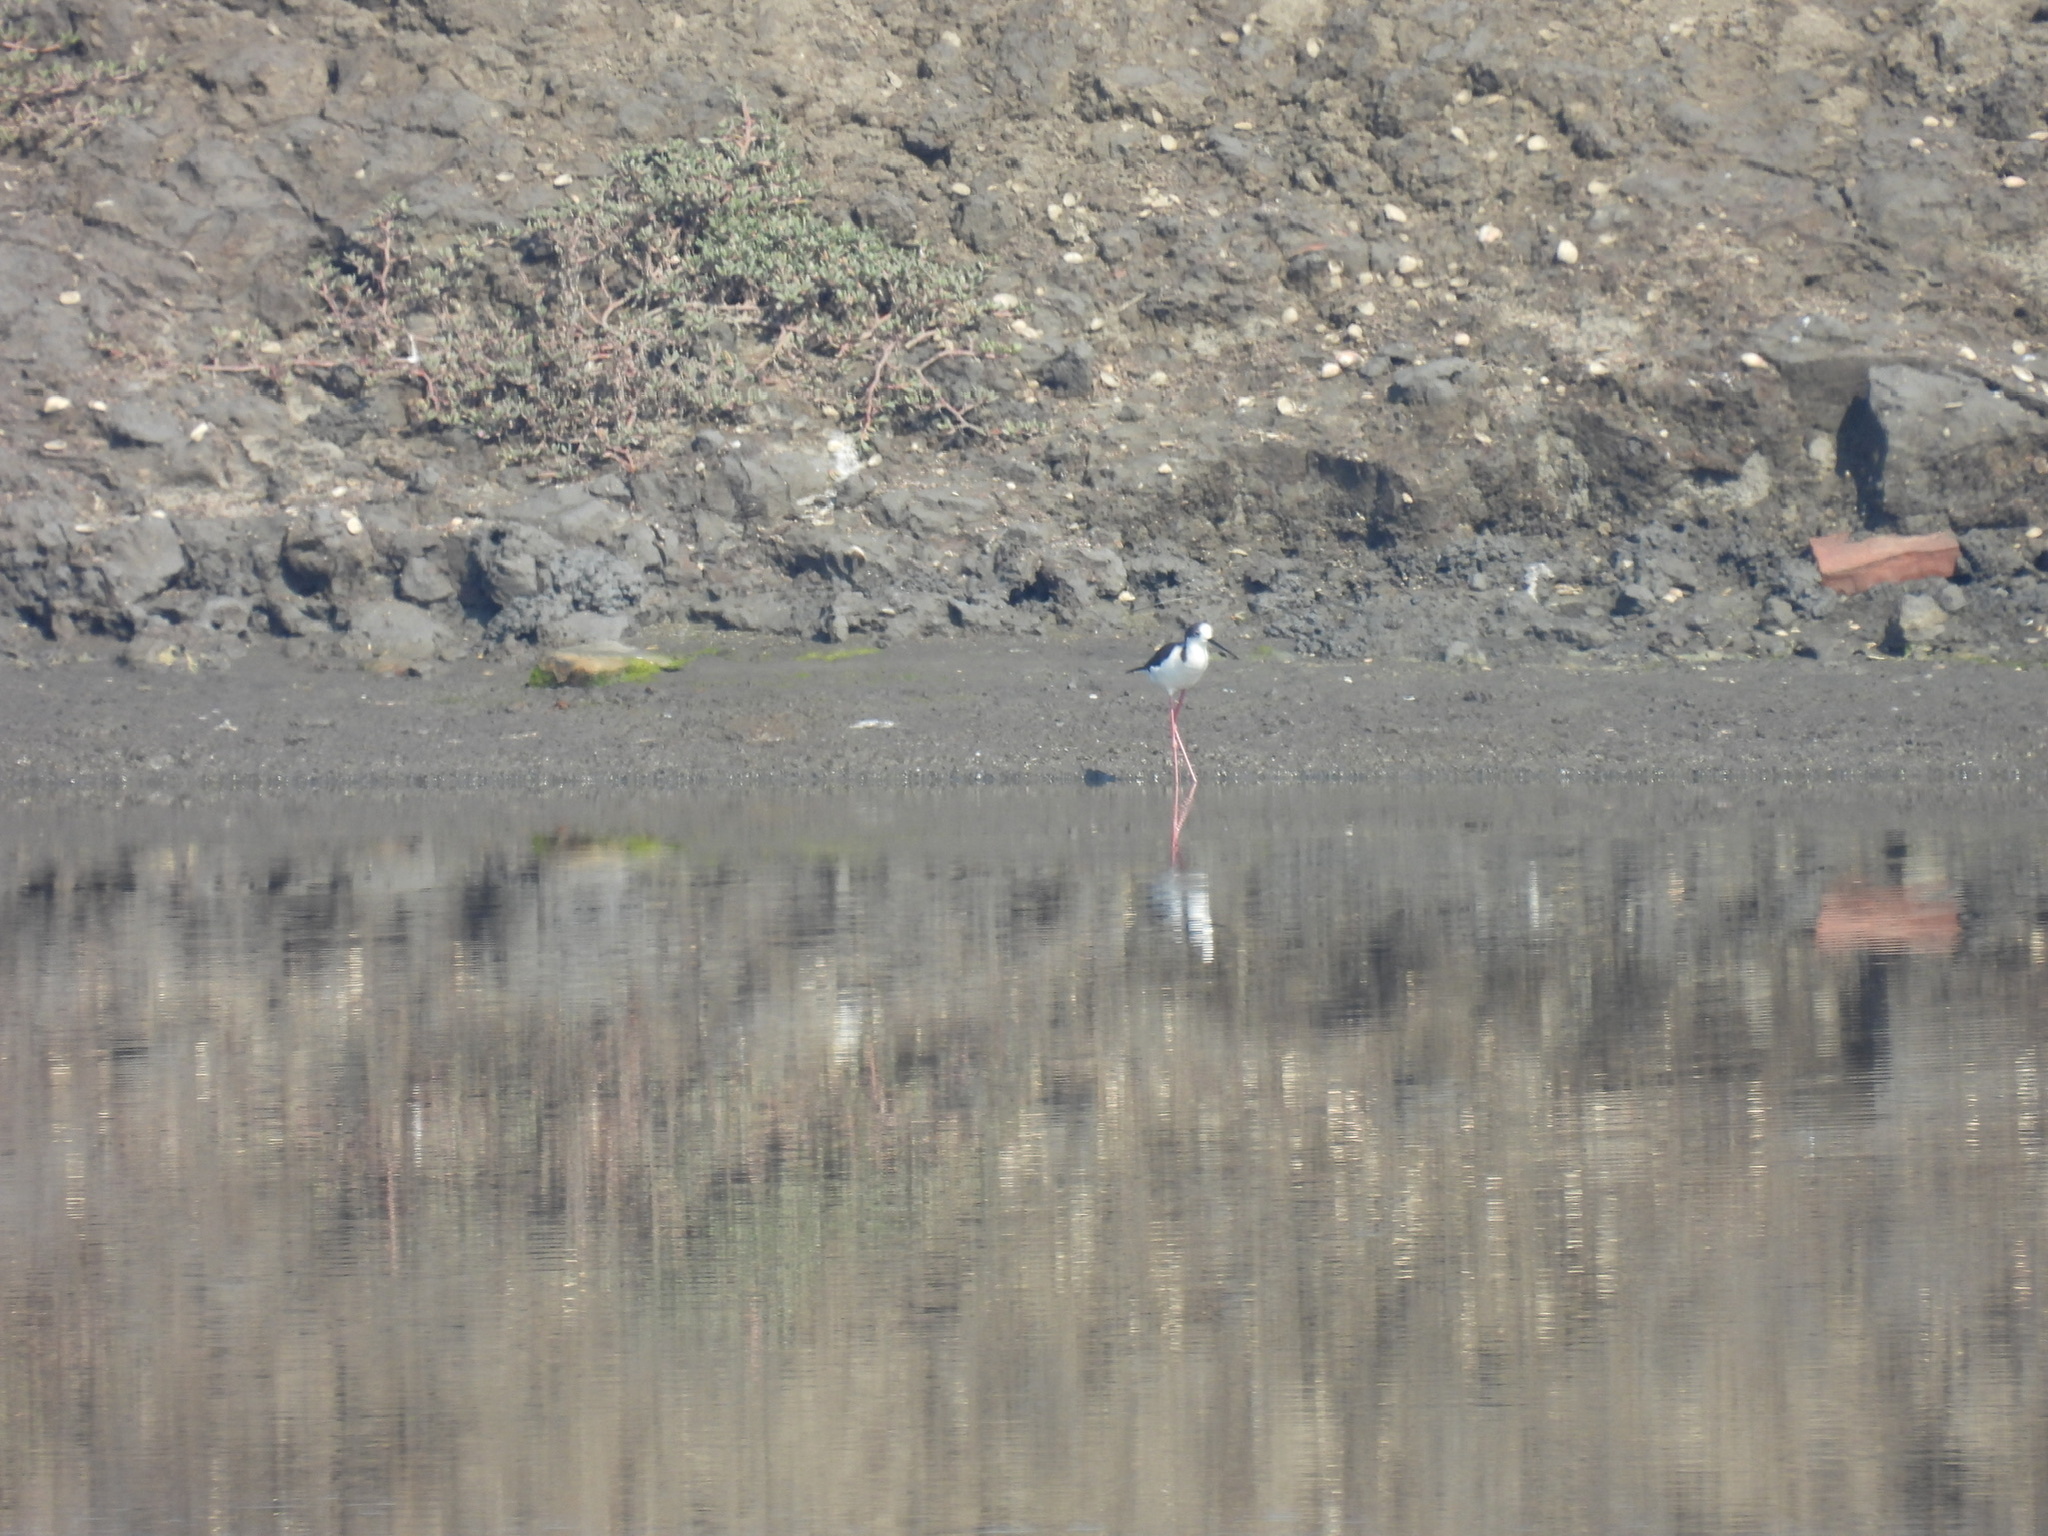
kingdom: Animalia
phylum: Chordata
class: Aves
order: Charadriiformes
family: Recurvirostridae
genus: Himantopus
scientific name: Himantopus himantopus
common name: Black-winged stilt
